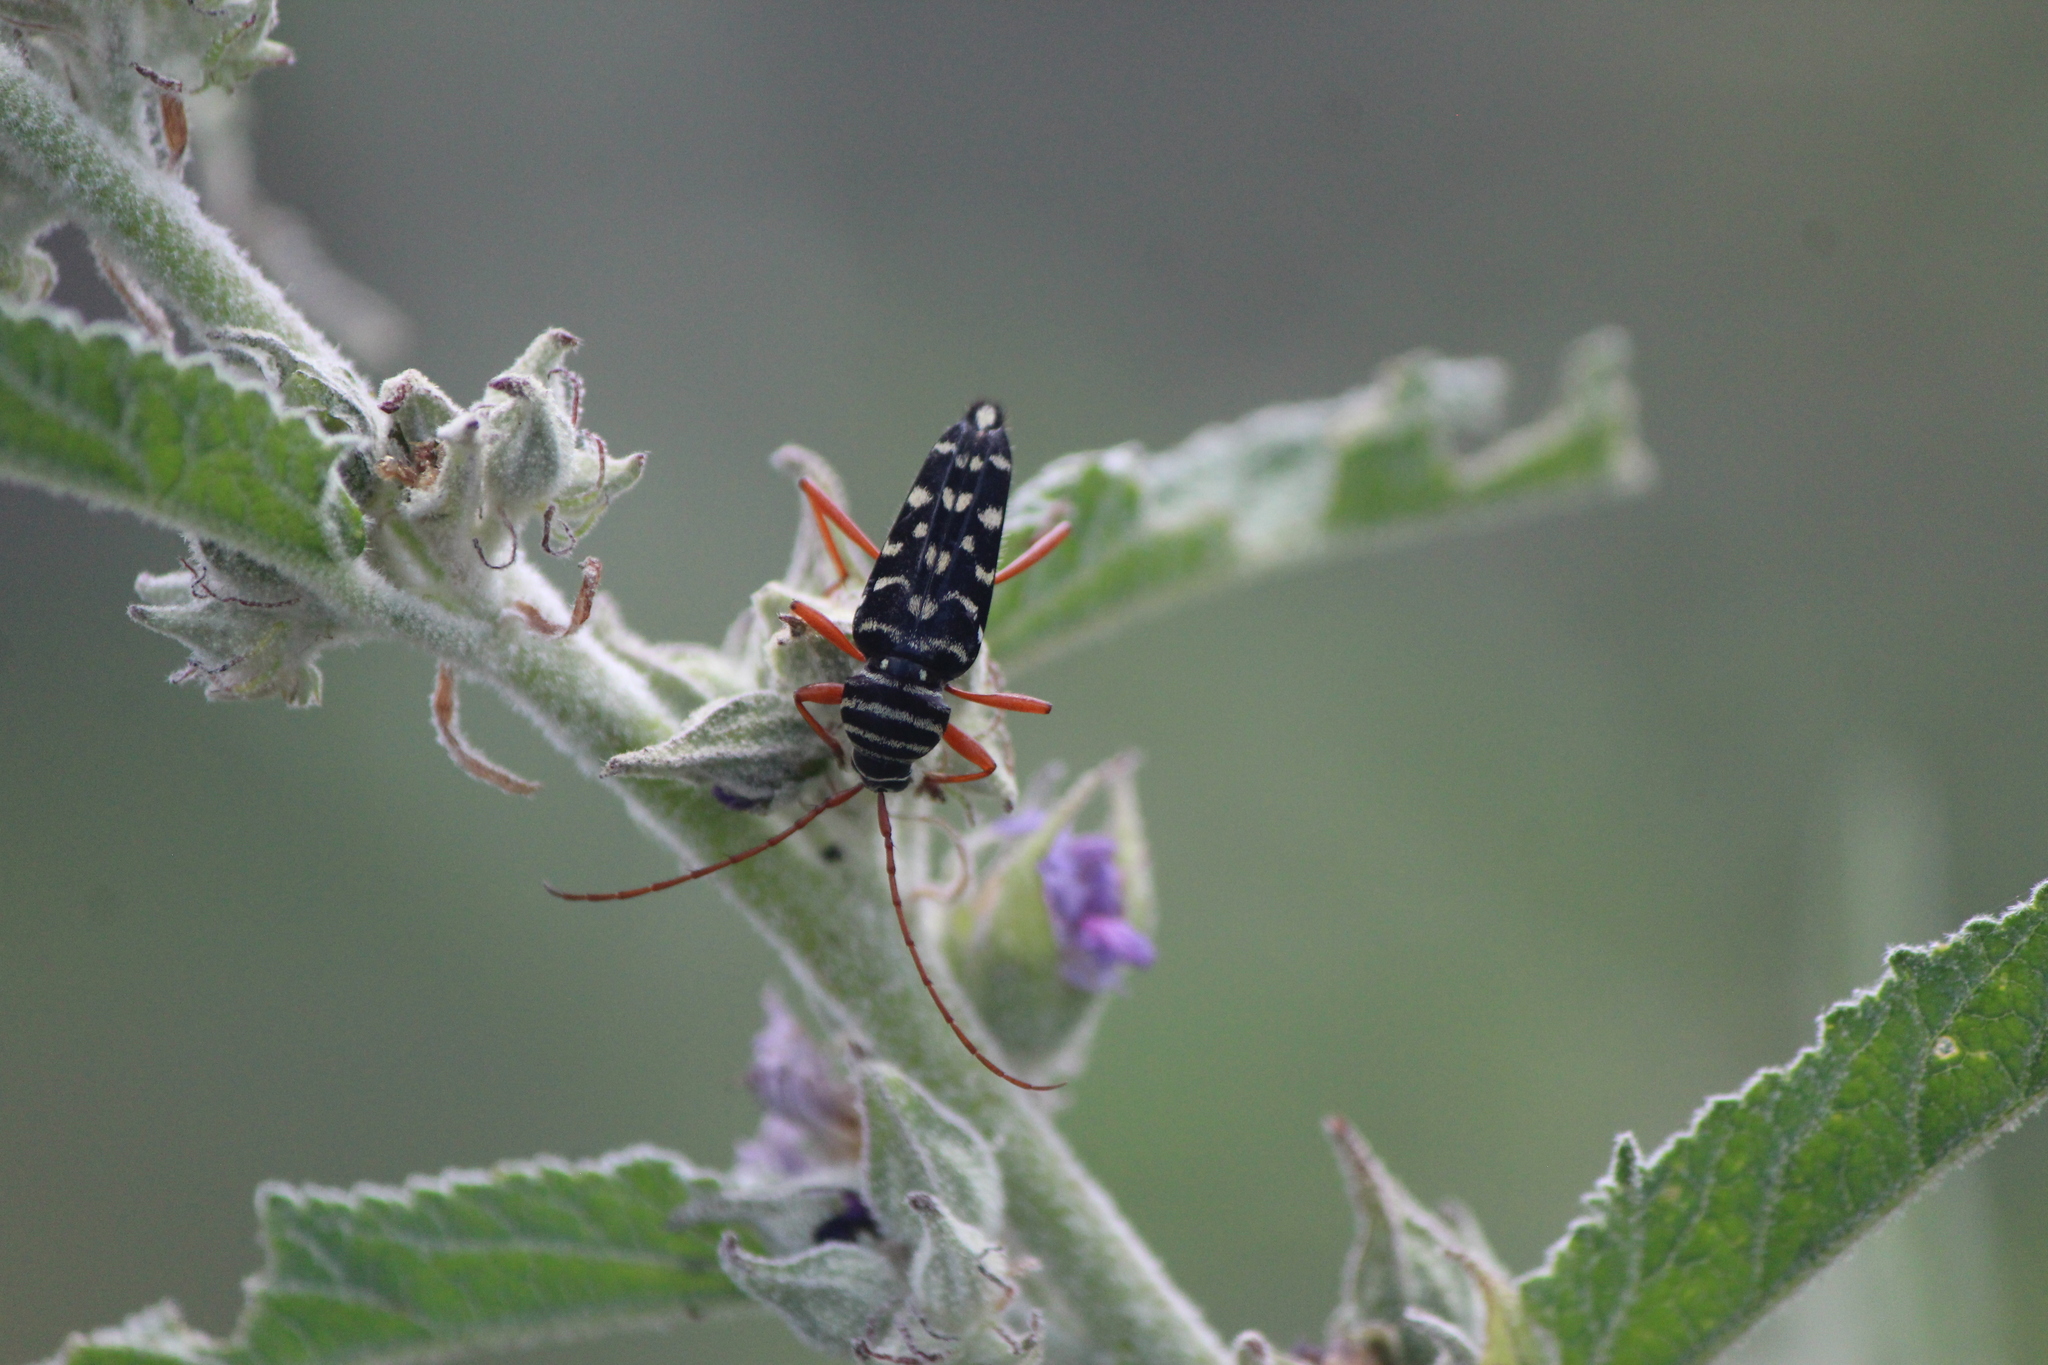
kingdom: Animalia
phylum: Arthropoda
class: Insecta
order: Coleoptera
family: Cerambycidae
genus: Placosternus
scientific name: Placosternus difficilis
